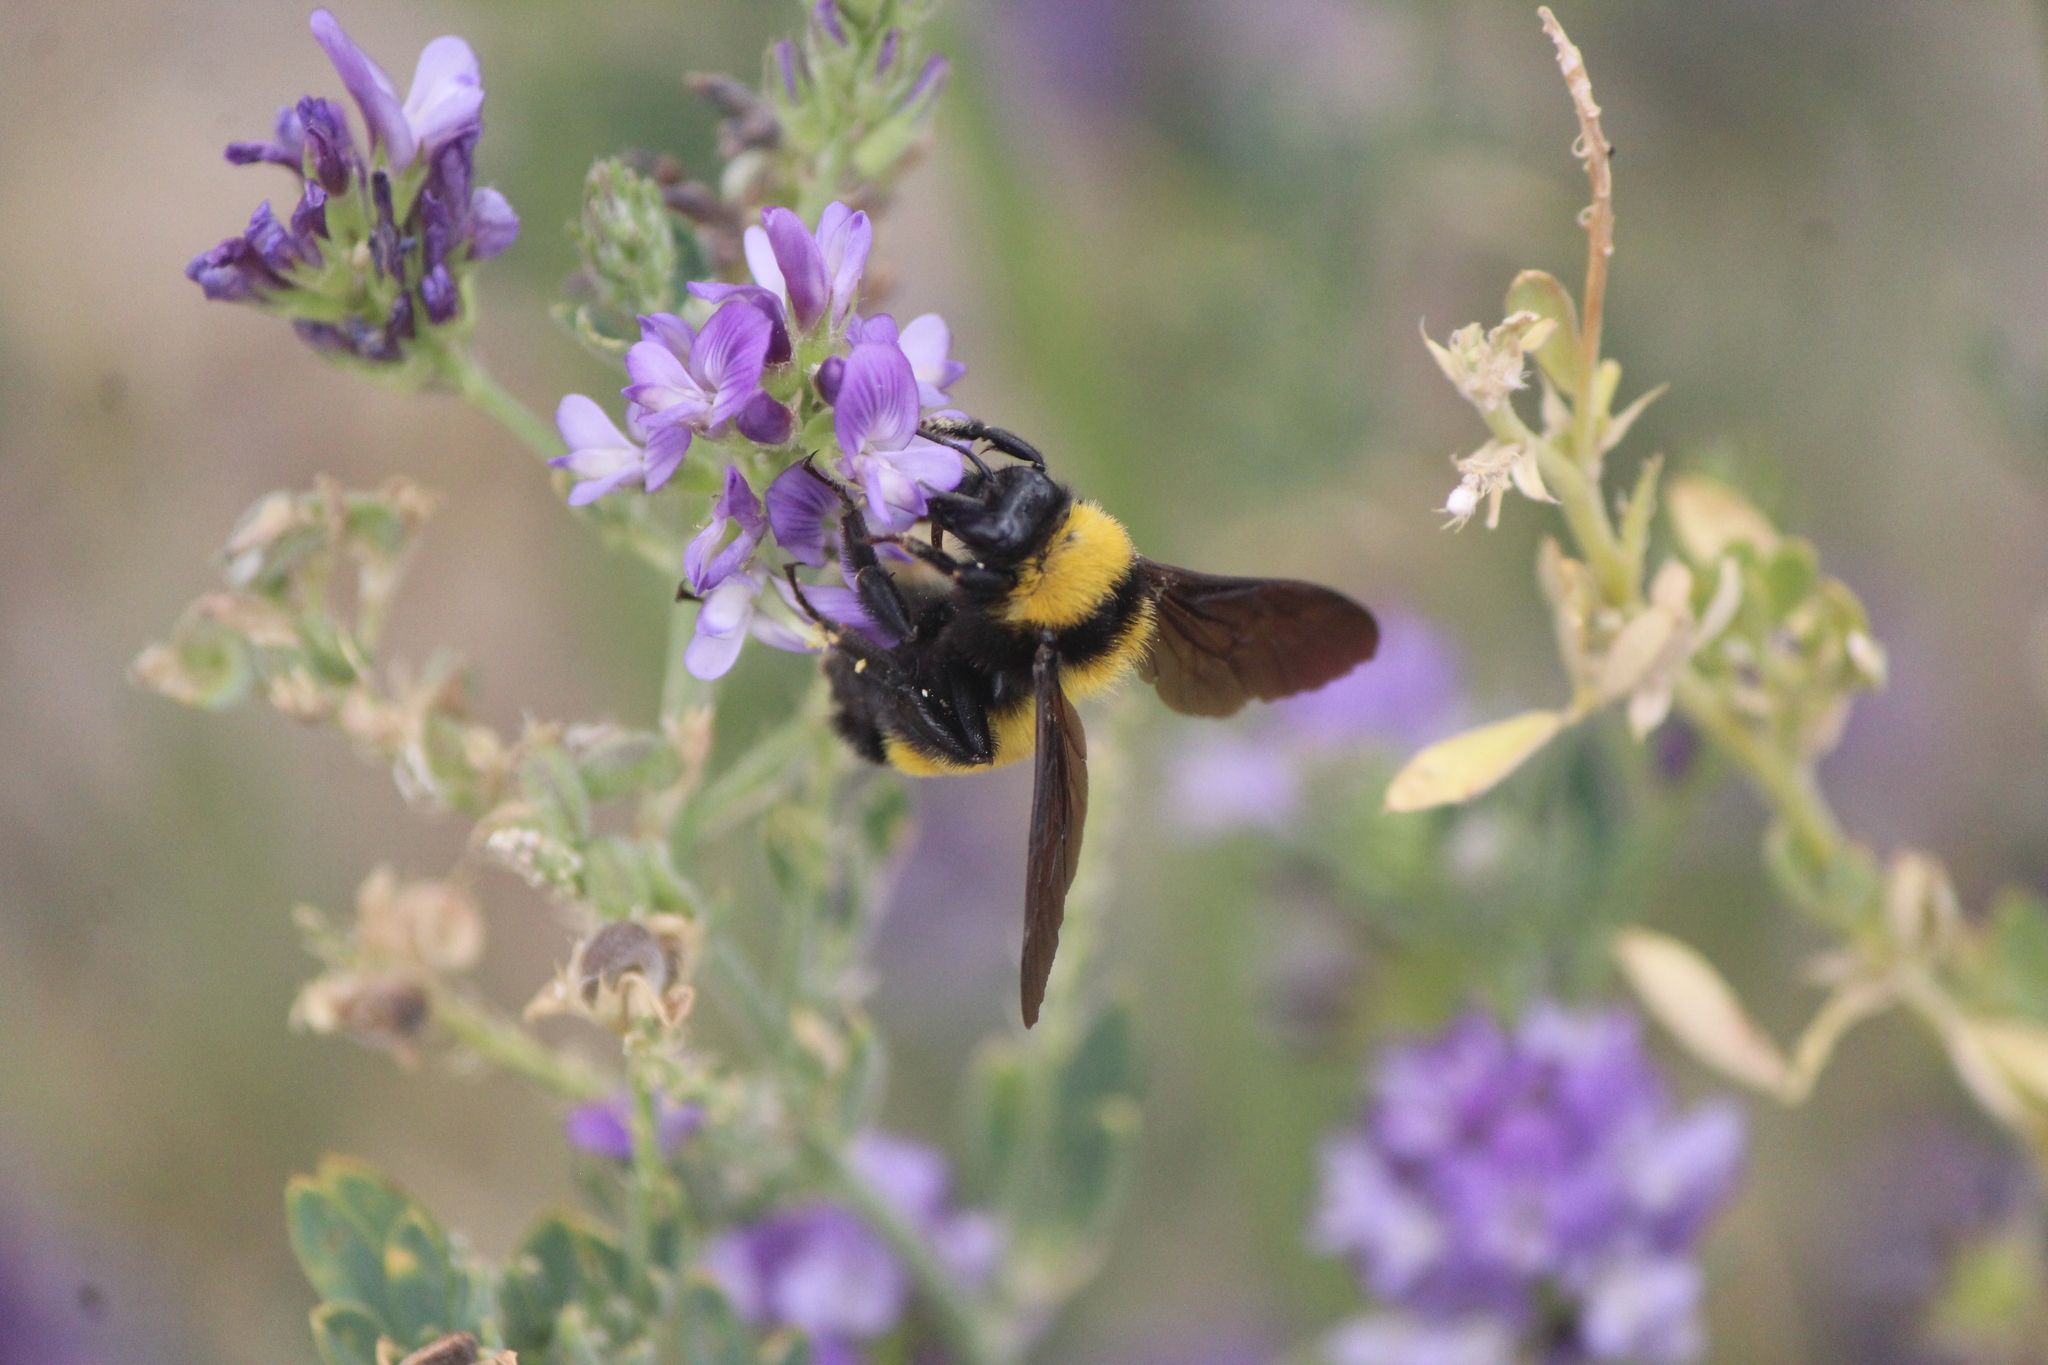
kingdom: Animalia
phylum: Arthropoda
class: Insecta
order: Hymenoptera
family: Apidae
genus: Bombus
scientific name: Bombus sonorus
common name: Sonoran bumble bee
